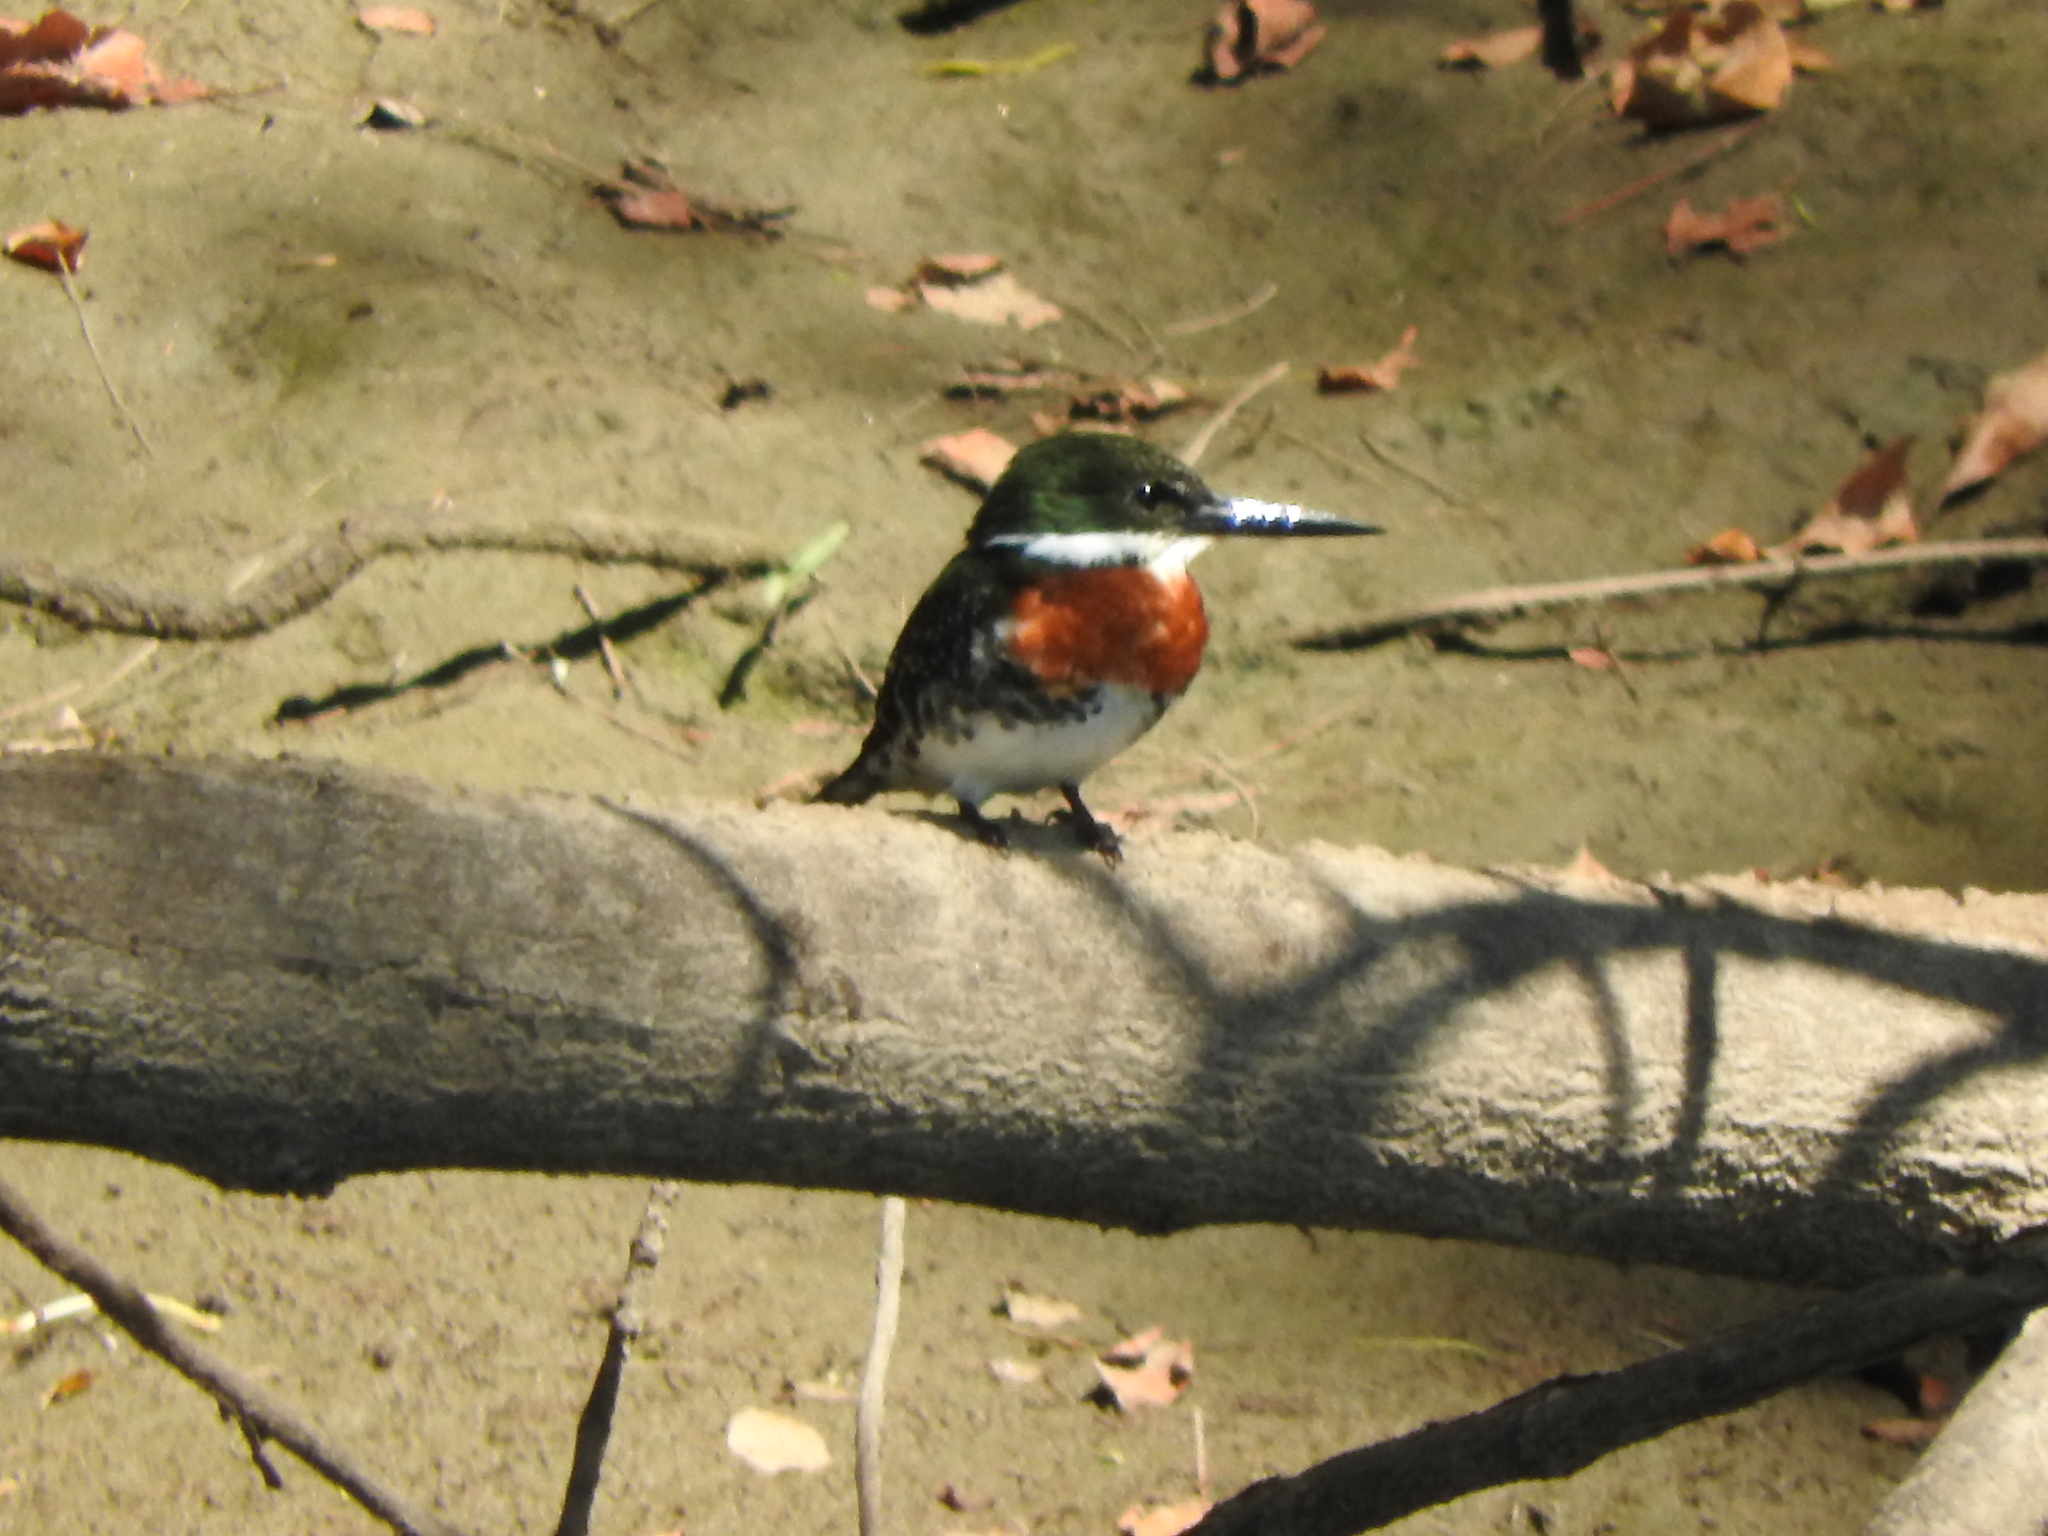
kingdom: Animalia
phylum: Chordata
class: Aves
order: Coraciiformes
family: Alcedinidae
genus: Chloroceryle
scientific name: Chloroceryle americana
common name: Green kingfisher
